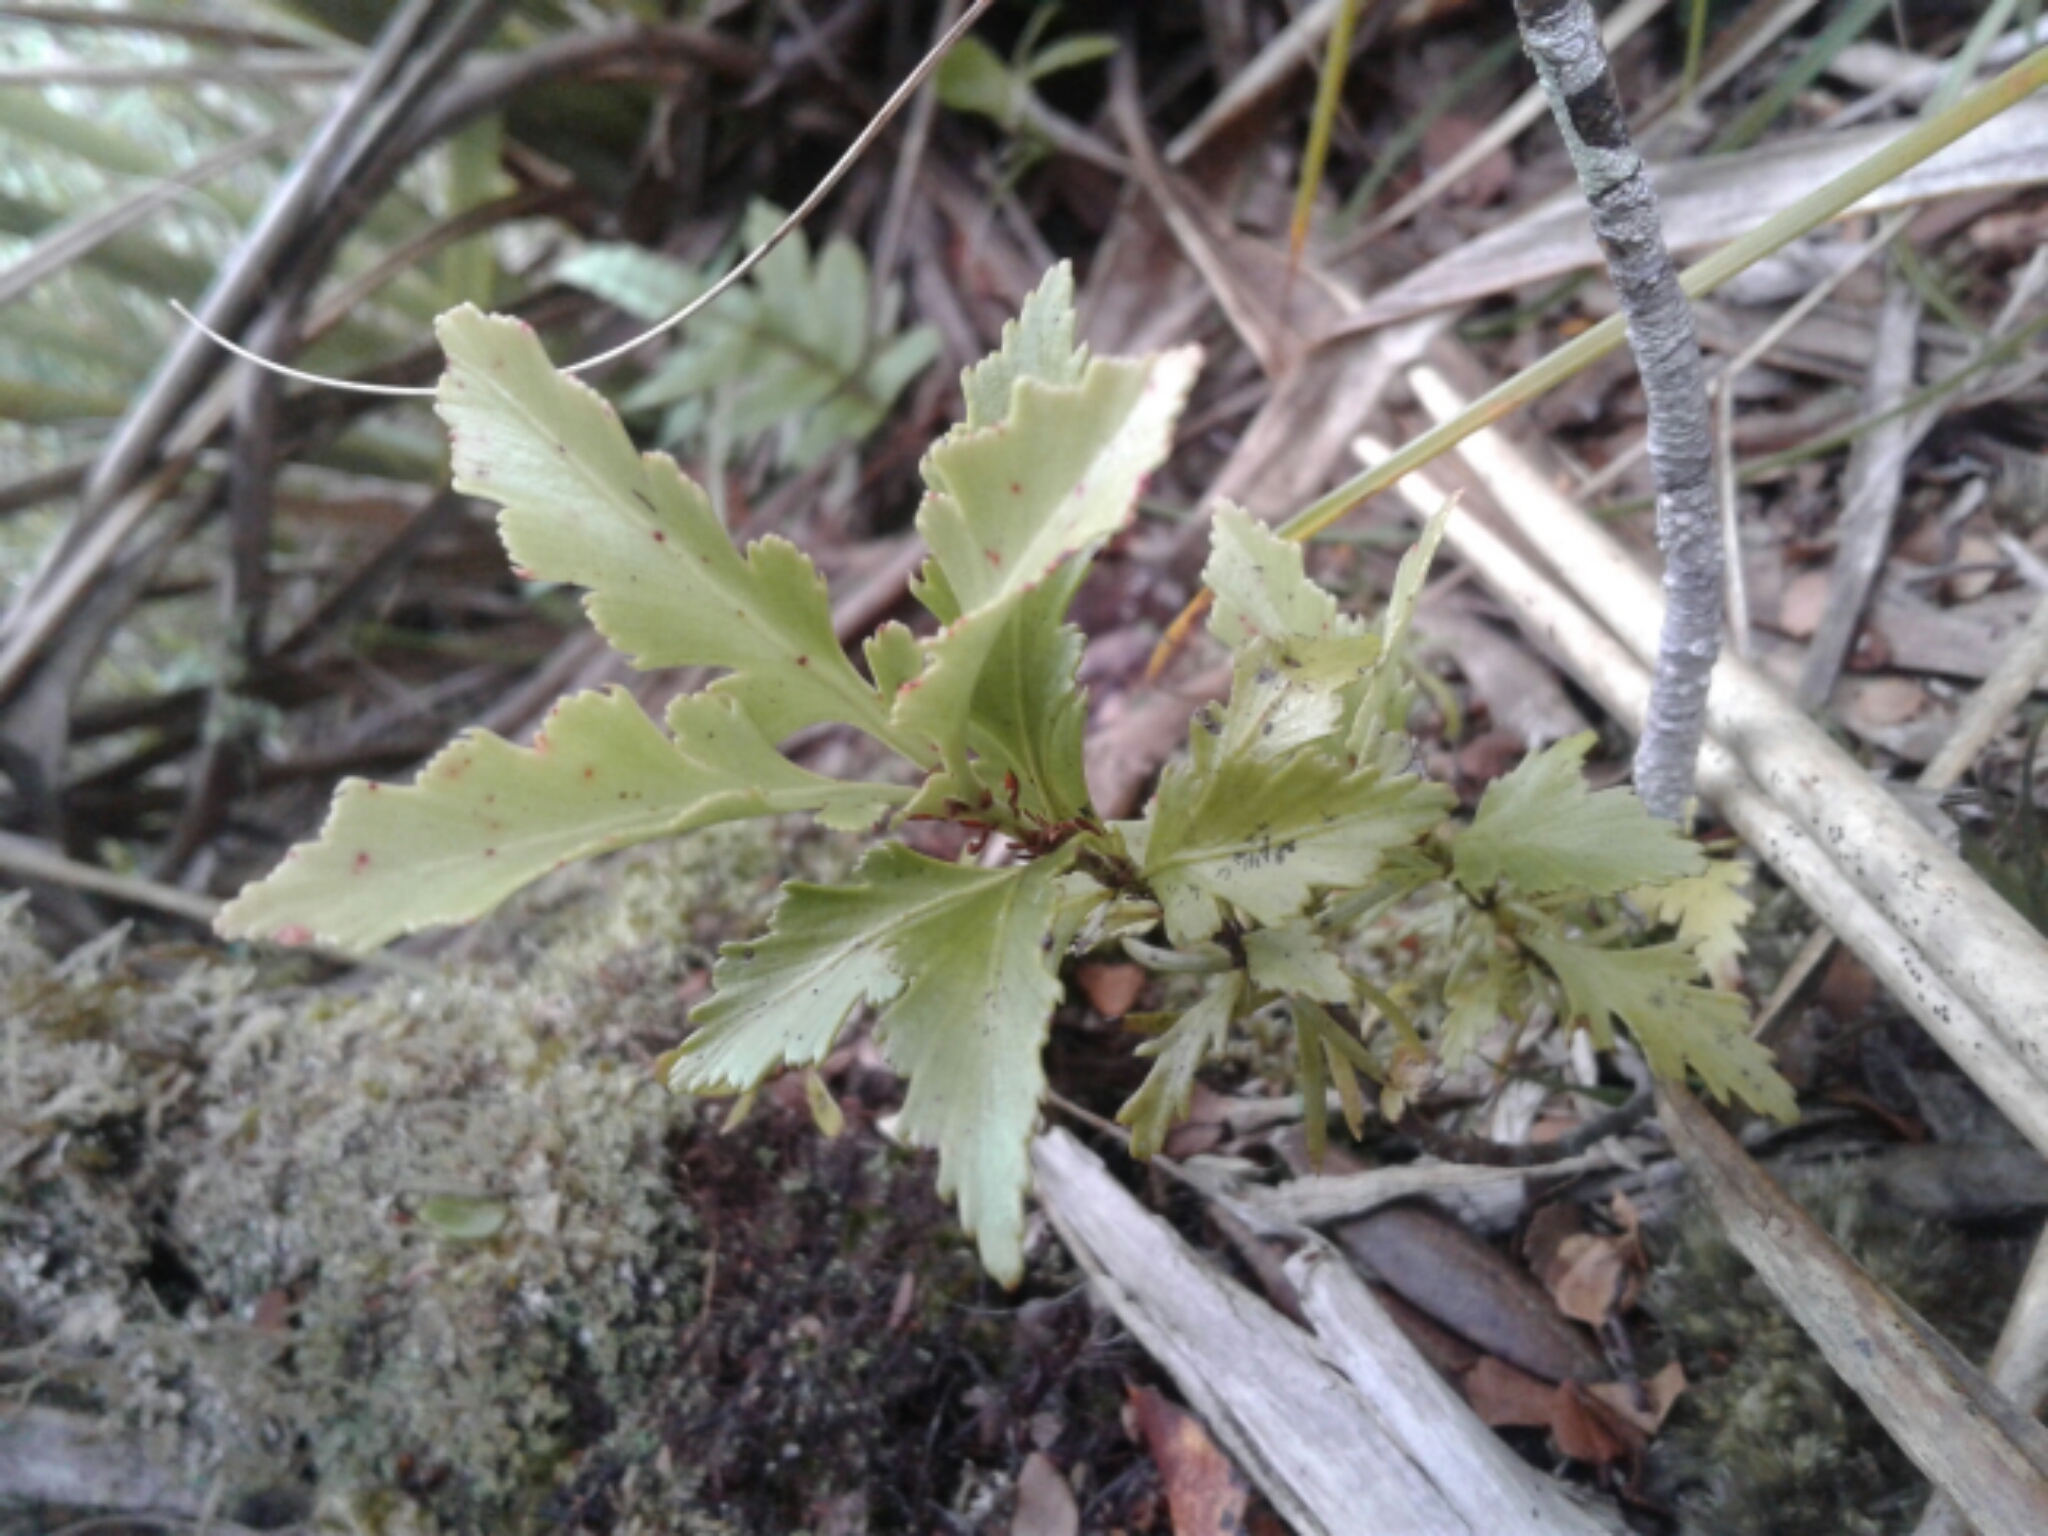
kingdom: Plantae
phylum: Tracheophyta
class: Pinopsida
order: Pinales
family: Phyllocladaceae
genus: Phyllocladus
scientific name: Phyllocladus trichomanoides
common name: Celery pine
